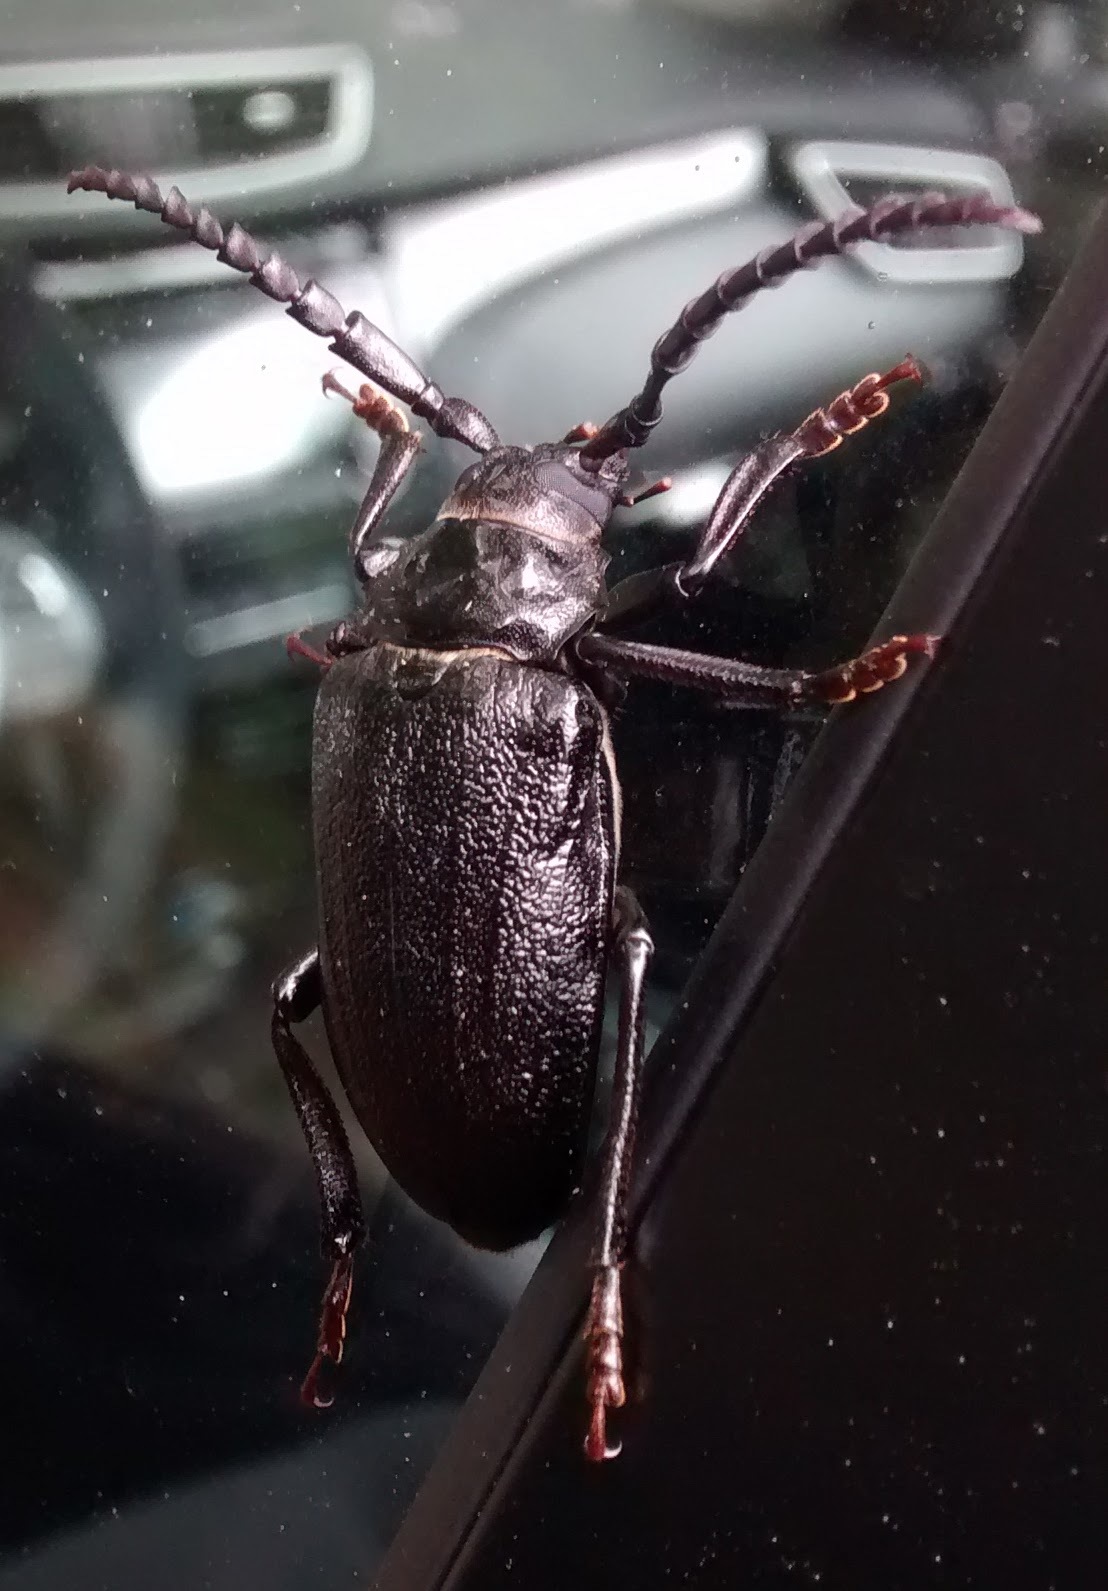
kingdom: Animalia
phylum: Arthropoda
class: Insecta
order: Coleoptera
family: Cerambycidae
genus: Prionus
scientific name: Prionus laticollis
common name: Broad necked prionus
